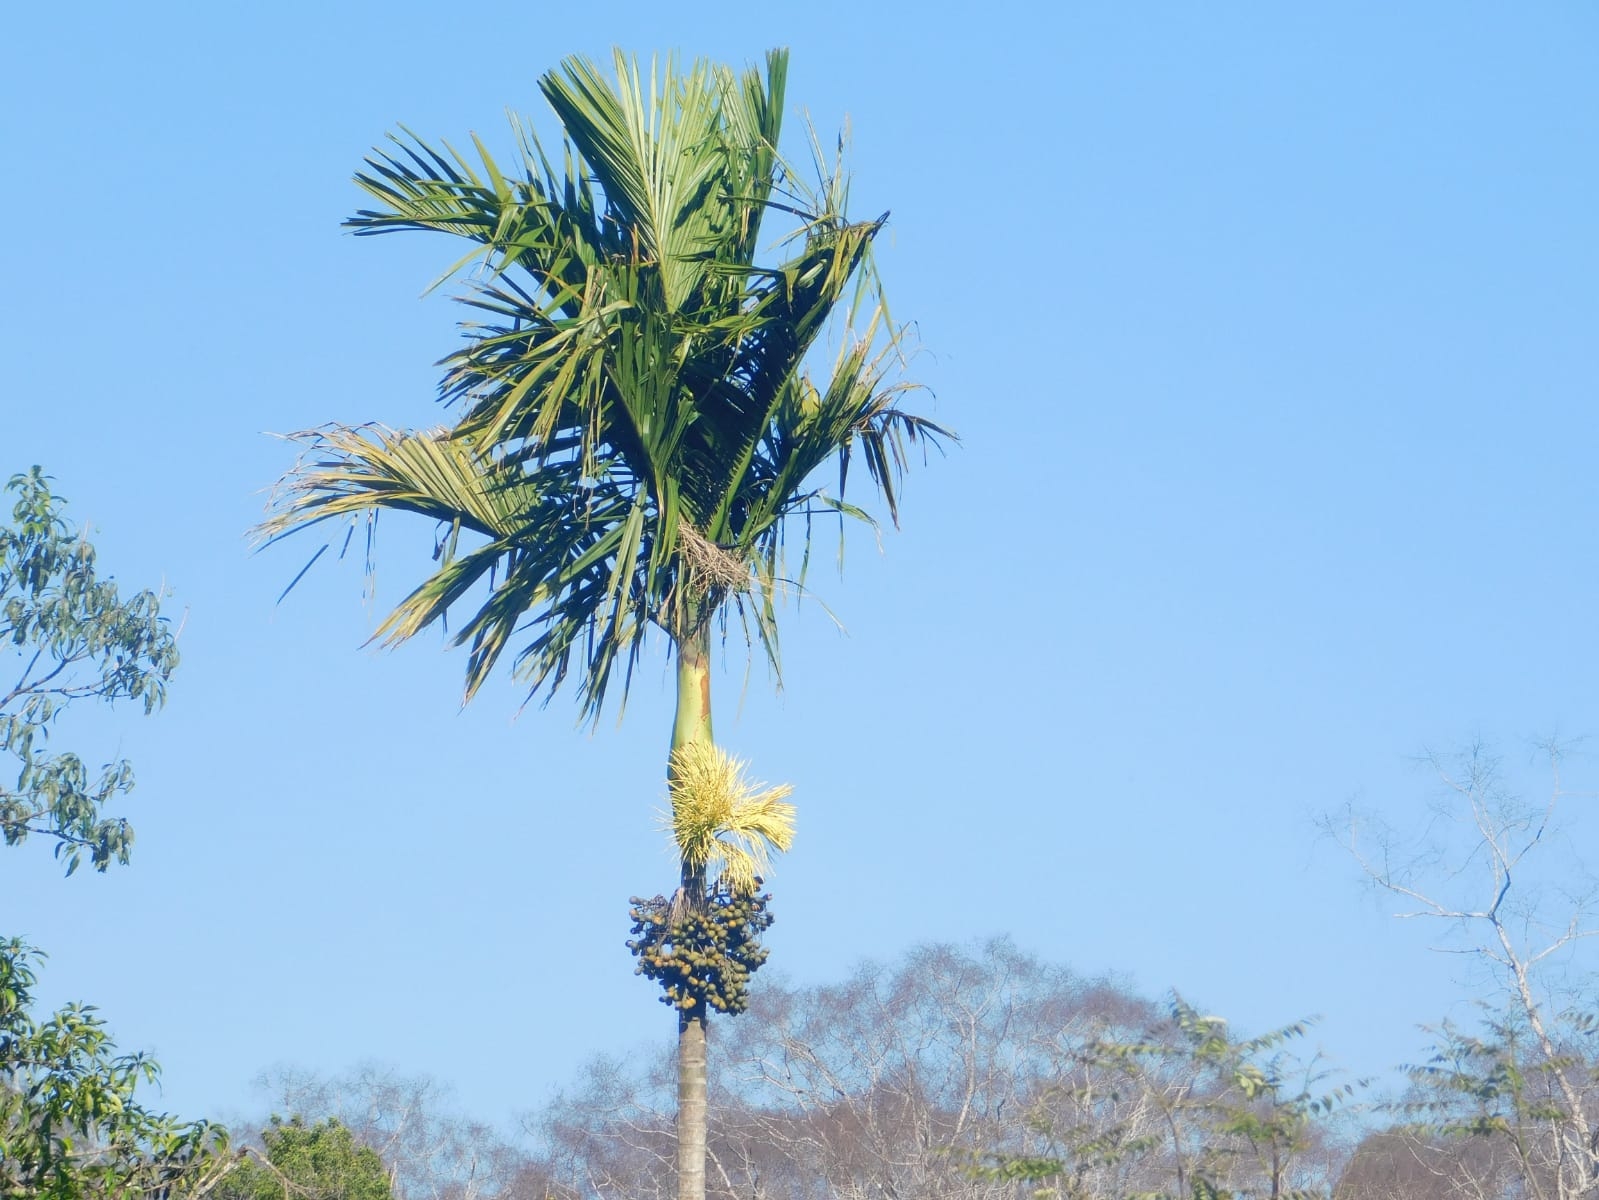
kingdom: Plantae
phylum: Tracheophyta
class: Liliopsida
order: Arecales
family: Arecaceae
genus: Areca
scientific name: Areca catechu
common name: Indian-nut
